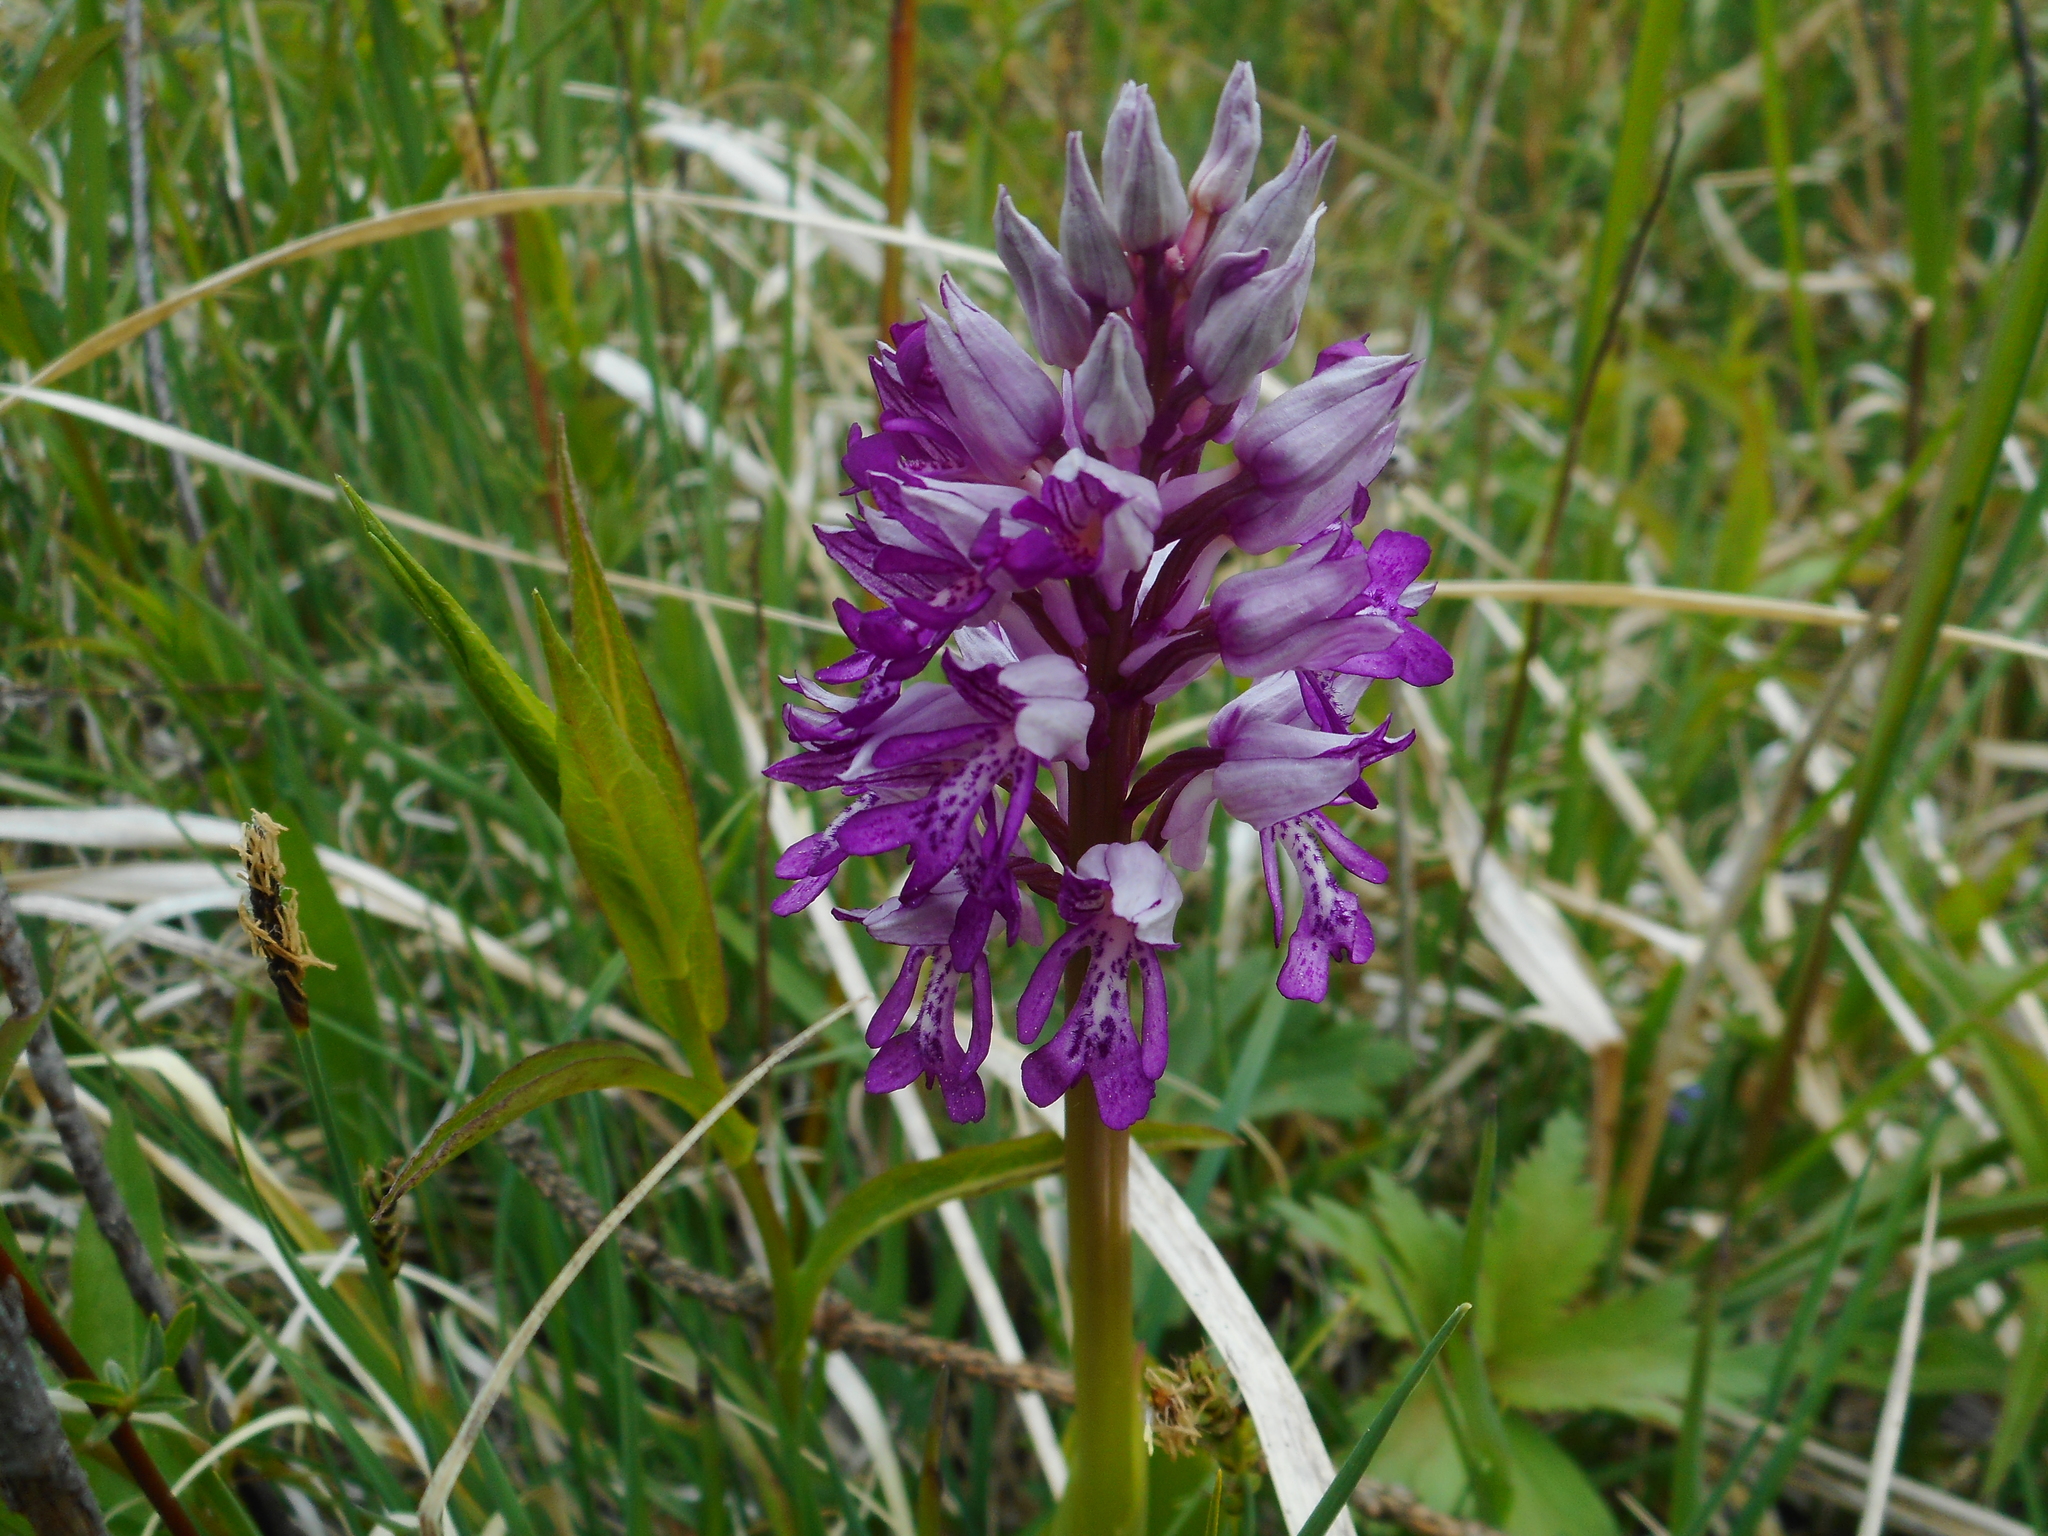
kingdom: Plantae
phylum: Tracheophyta
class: Liliopsida
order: Asparagales
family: Orchidaceae
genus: Orchis
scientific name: Orchis militaris
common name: Military orchid
